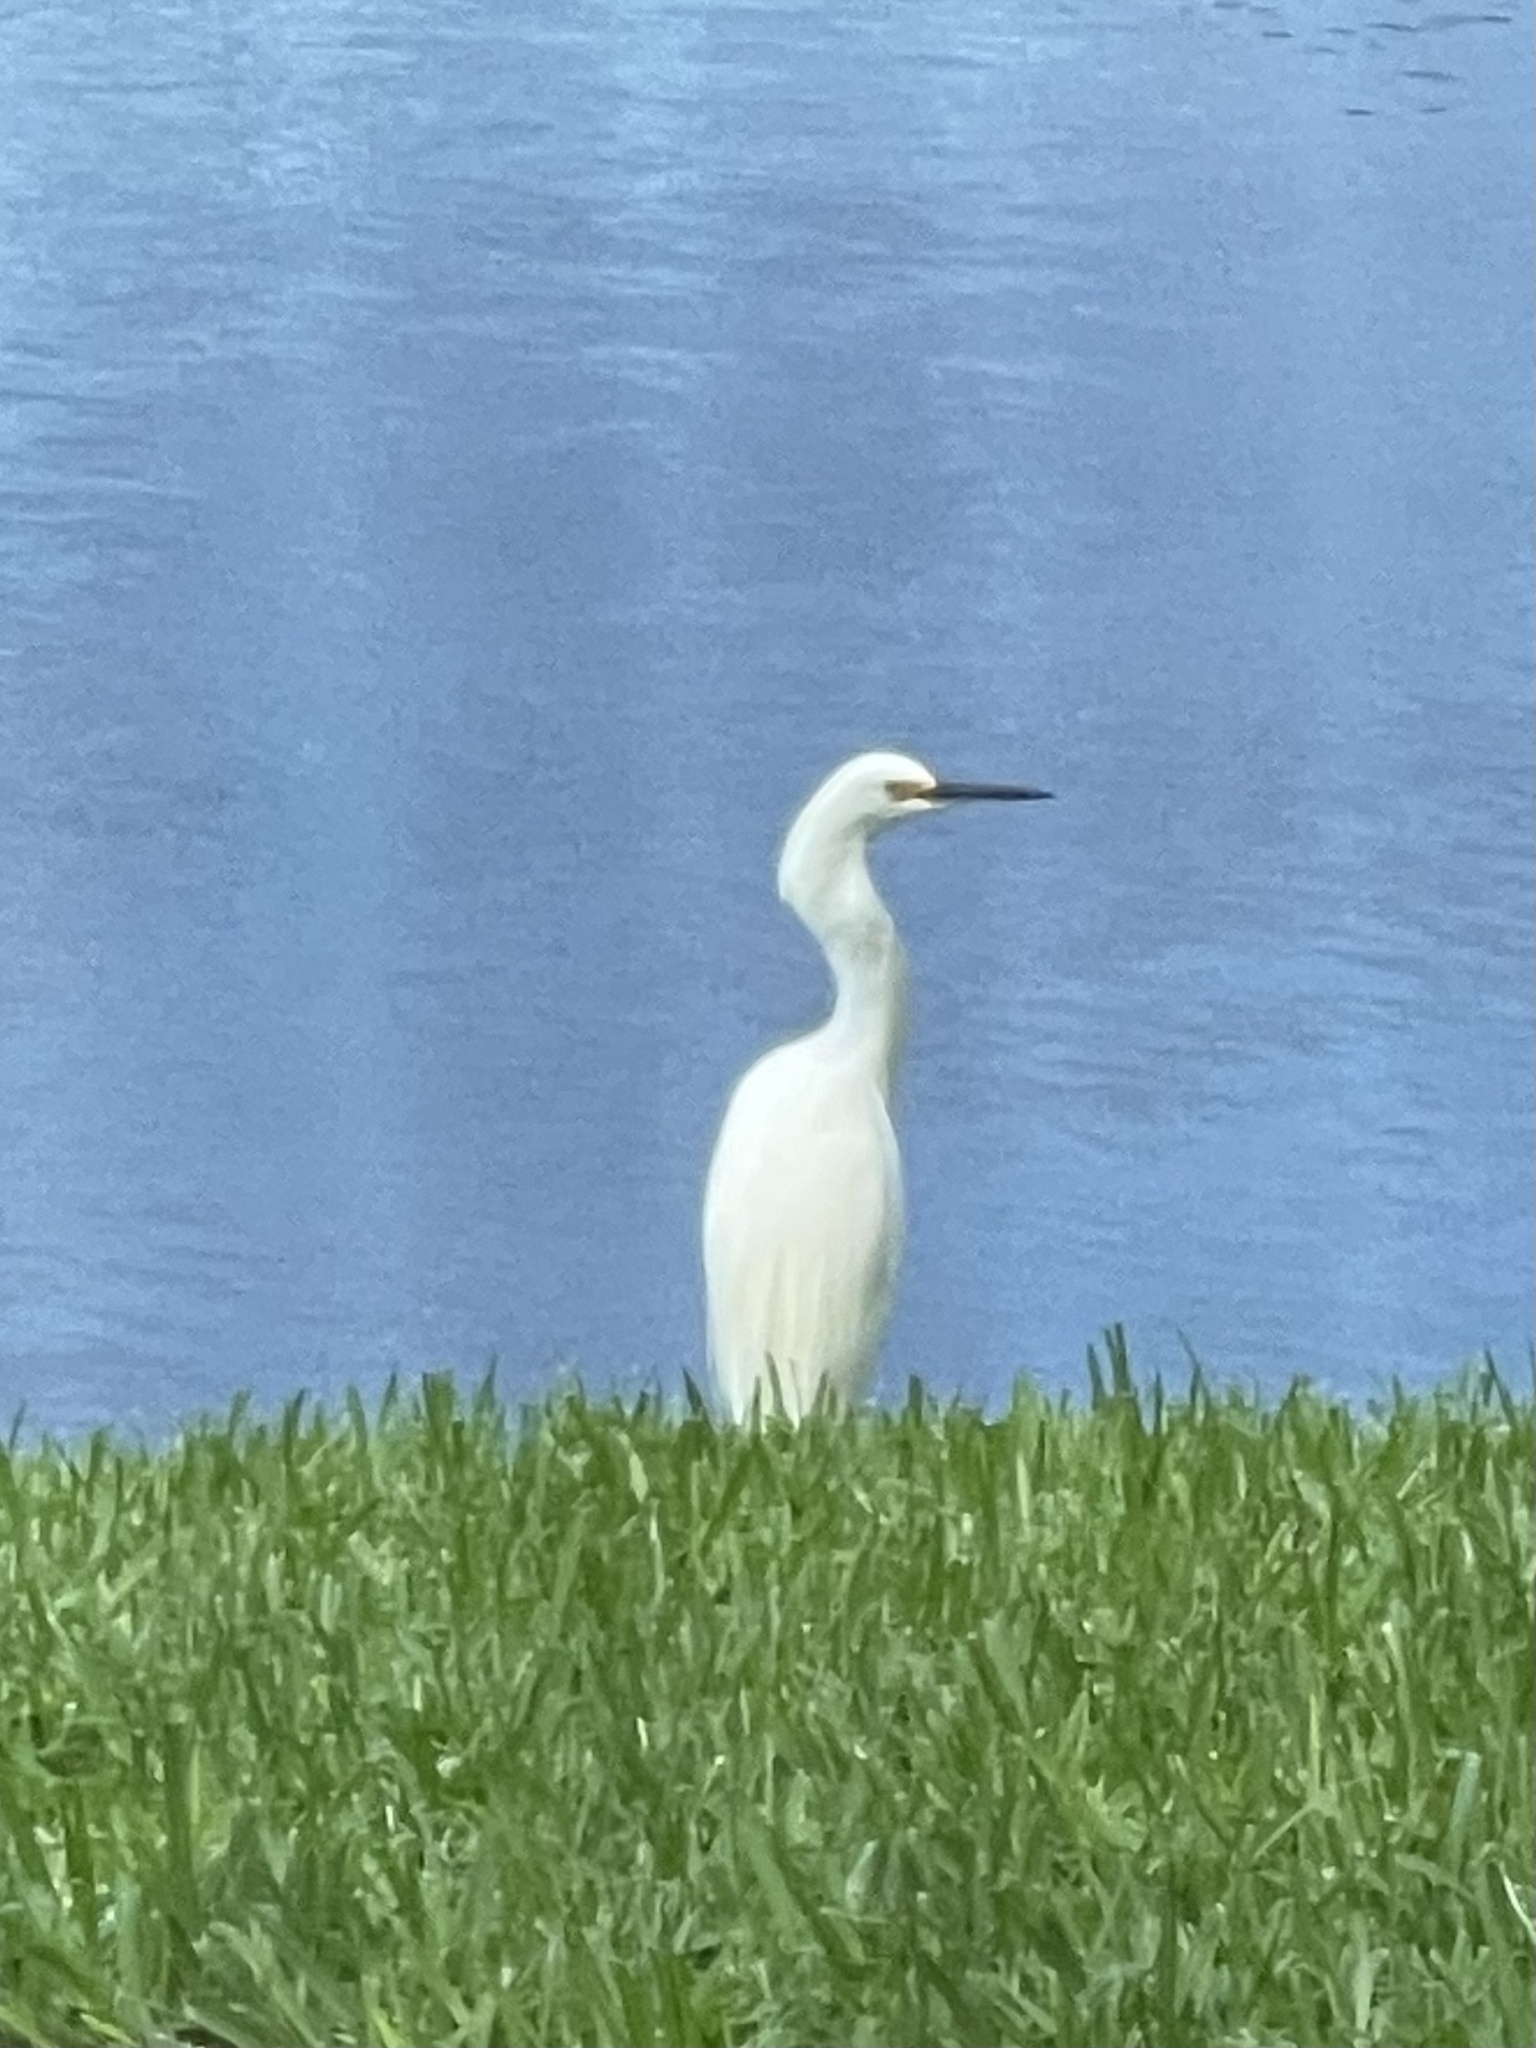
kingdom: Animalia
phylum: Chordata
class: Aves
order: Pelecaniformes
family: Ardeidae
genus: Egretta
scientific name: Egretta thula
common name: Snowy egret
